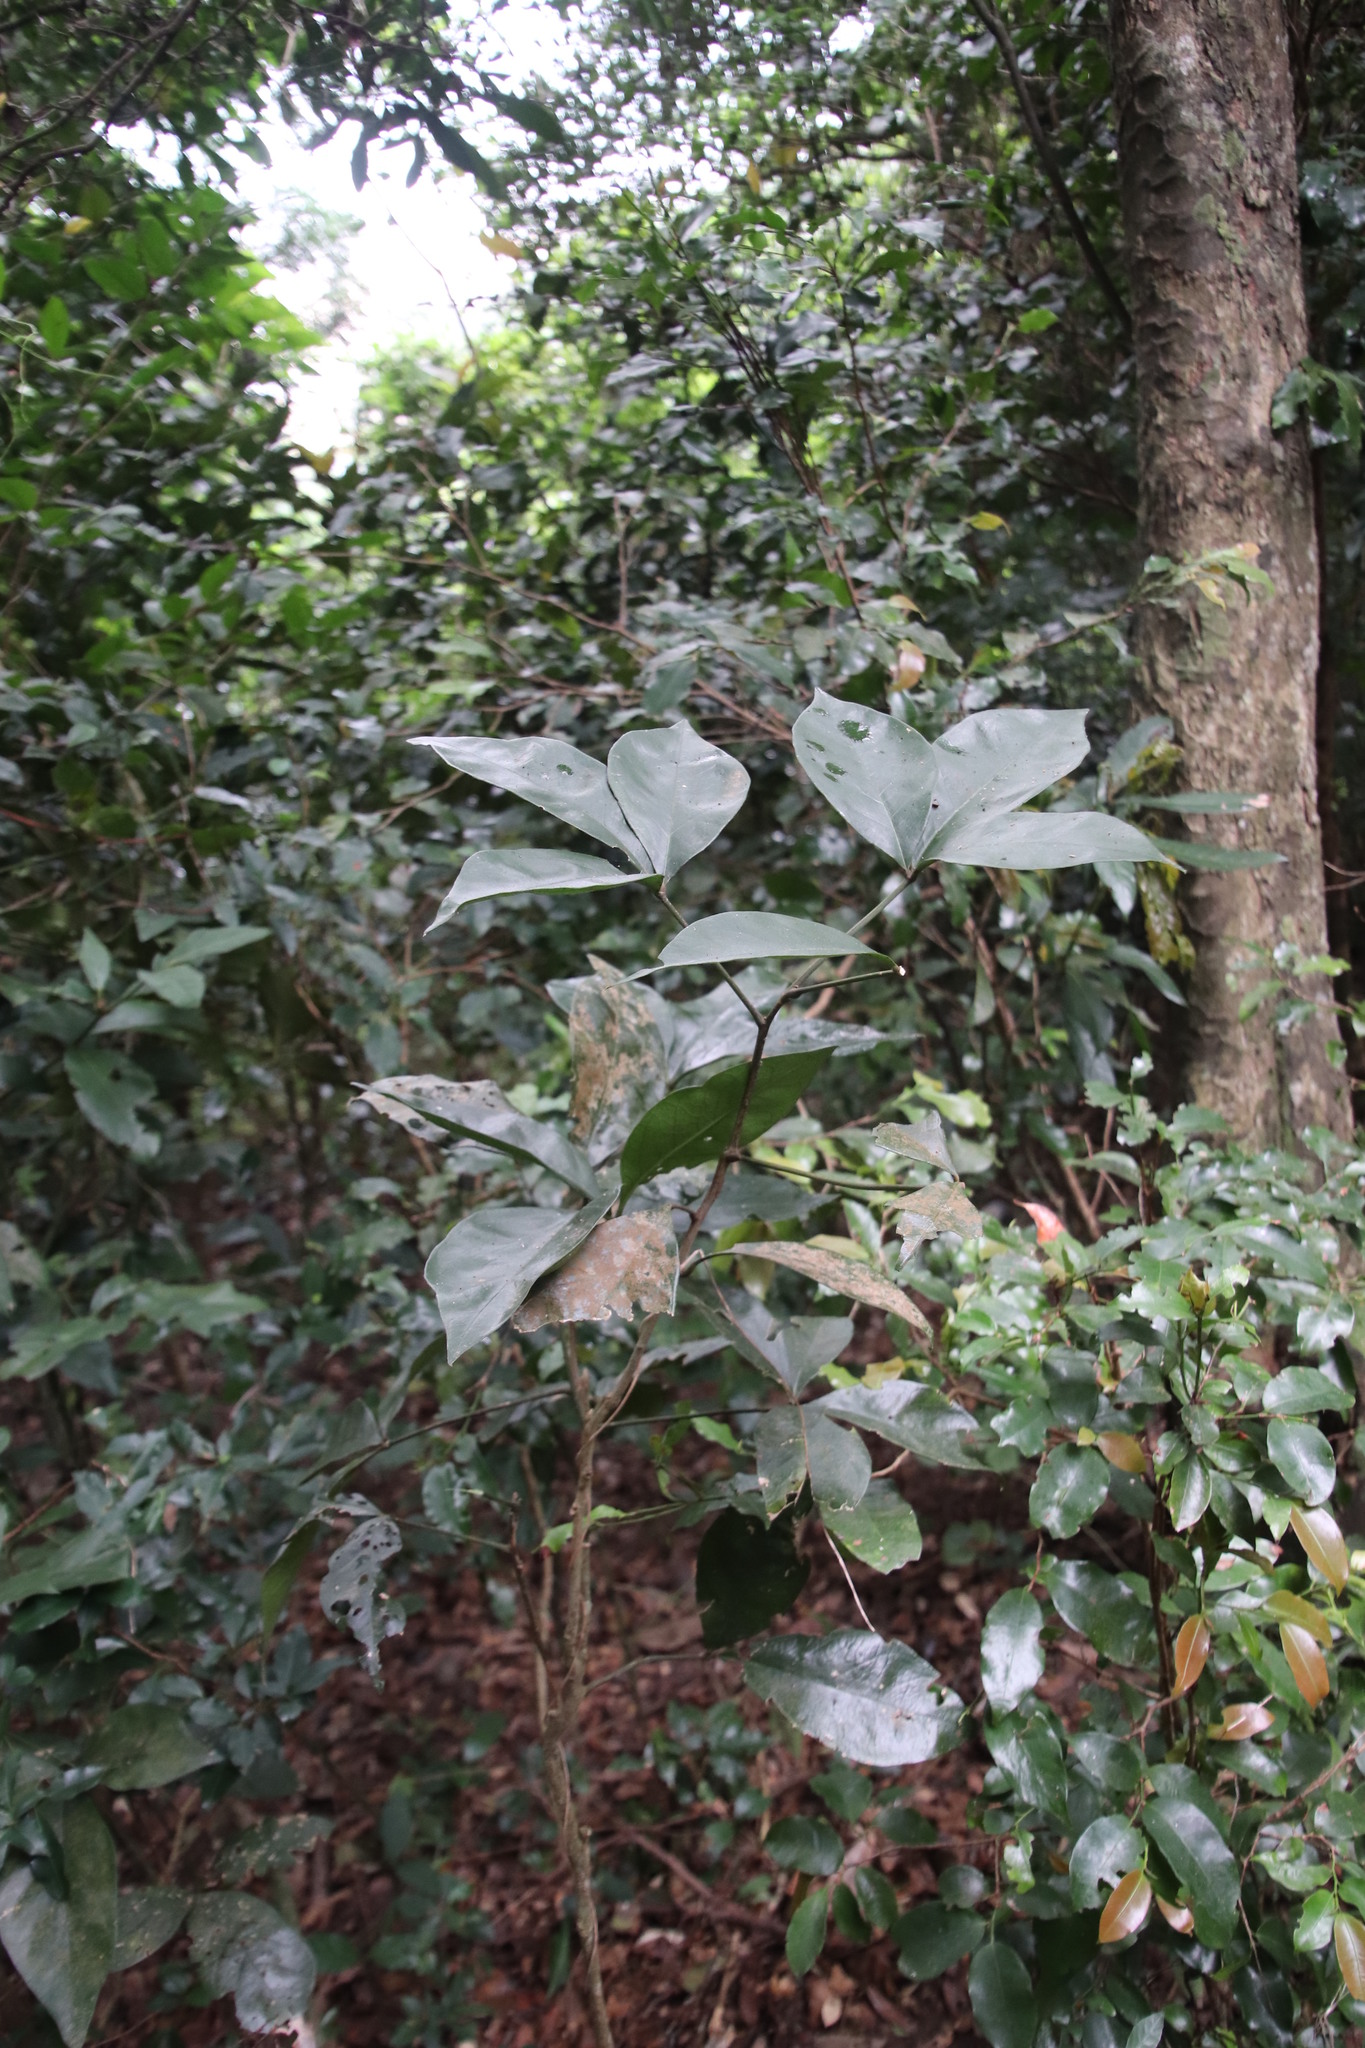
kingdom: Plantae
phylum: Tracheophyta
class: Magnoliopsida
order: Brassicales
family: Capparaceae
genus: Bachmannia
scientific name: Bachmannia woodii
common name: Four-finger bush
